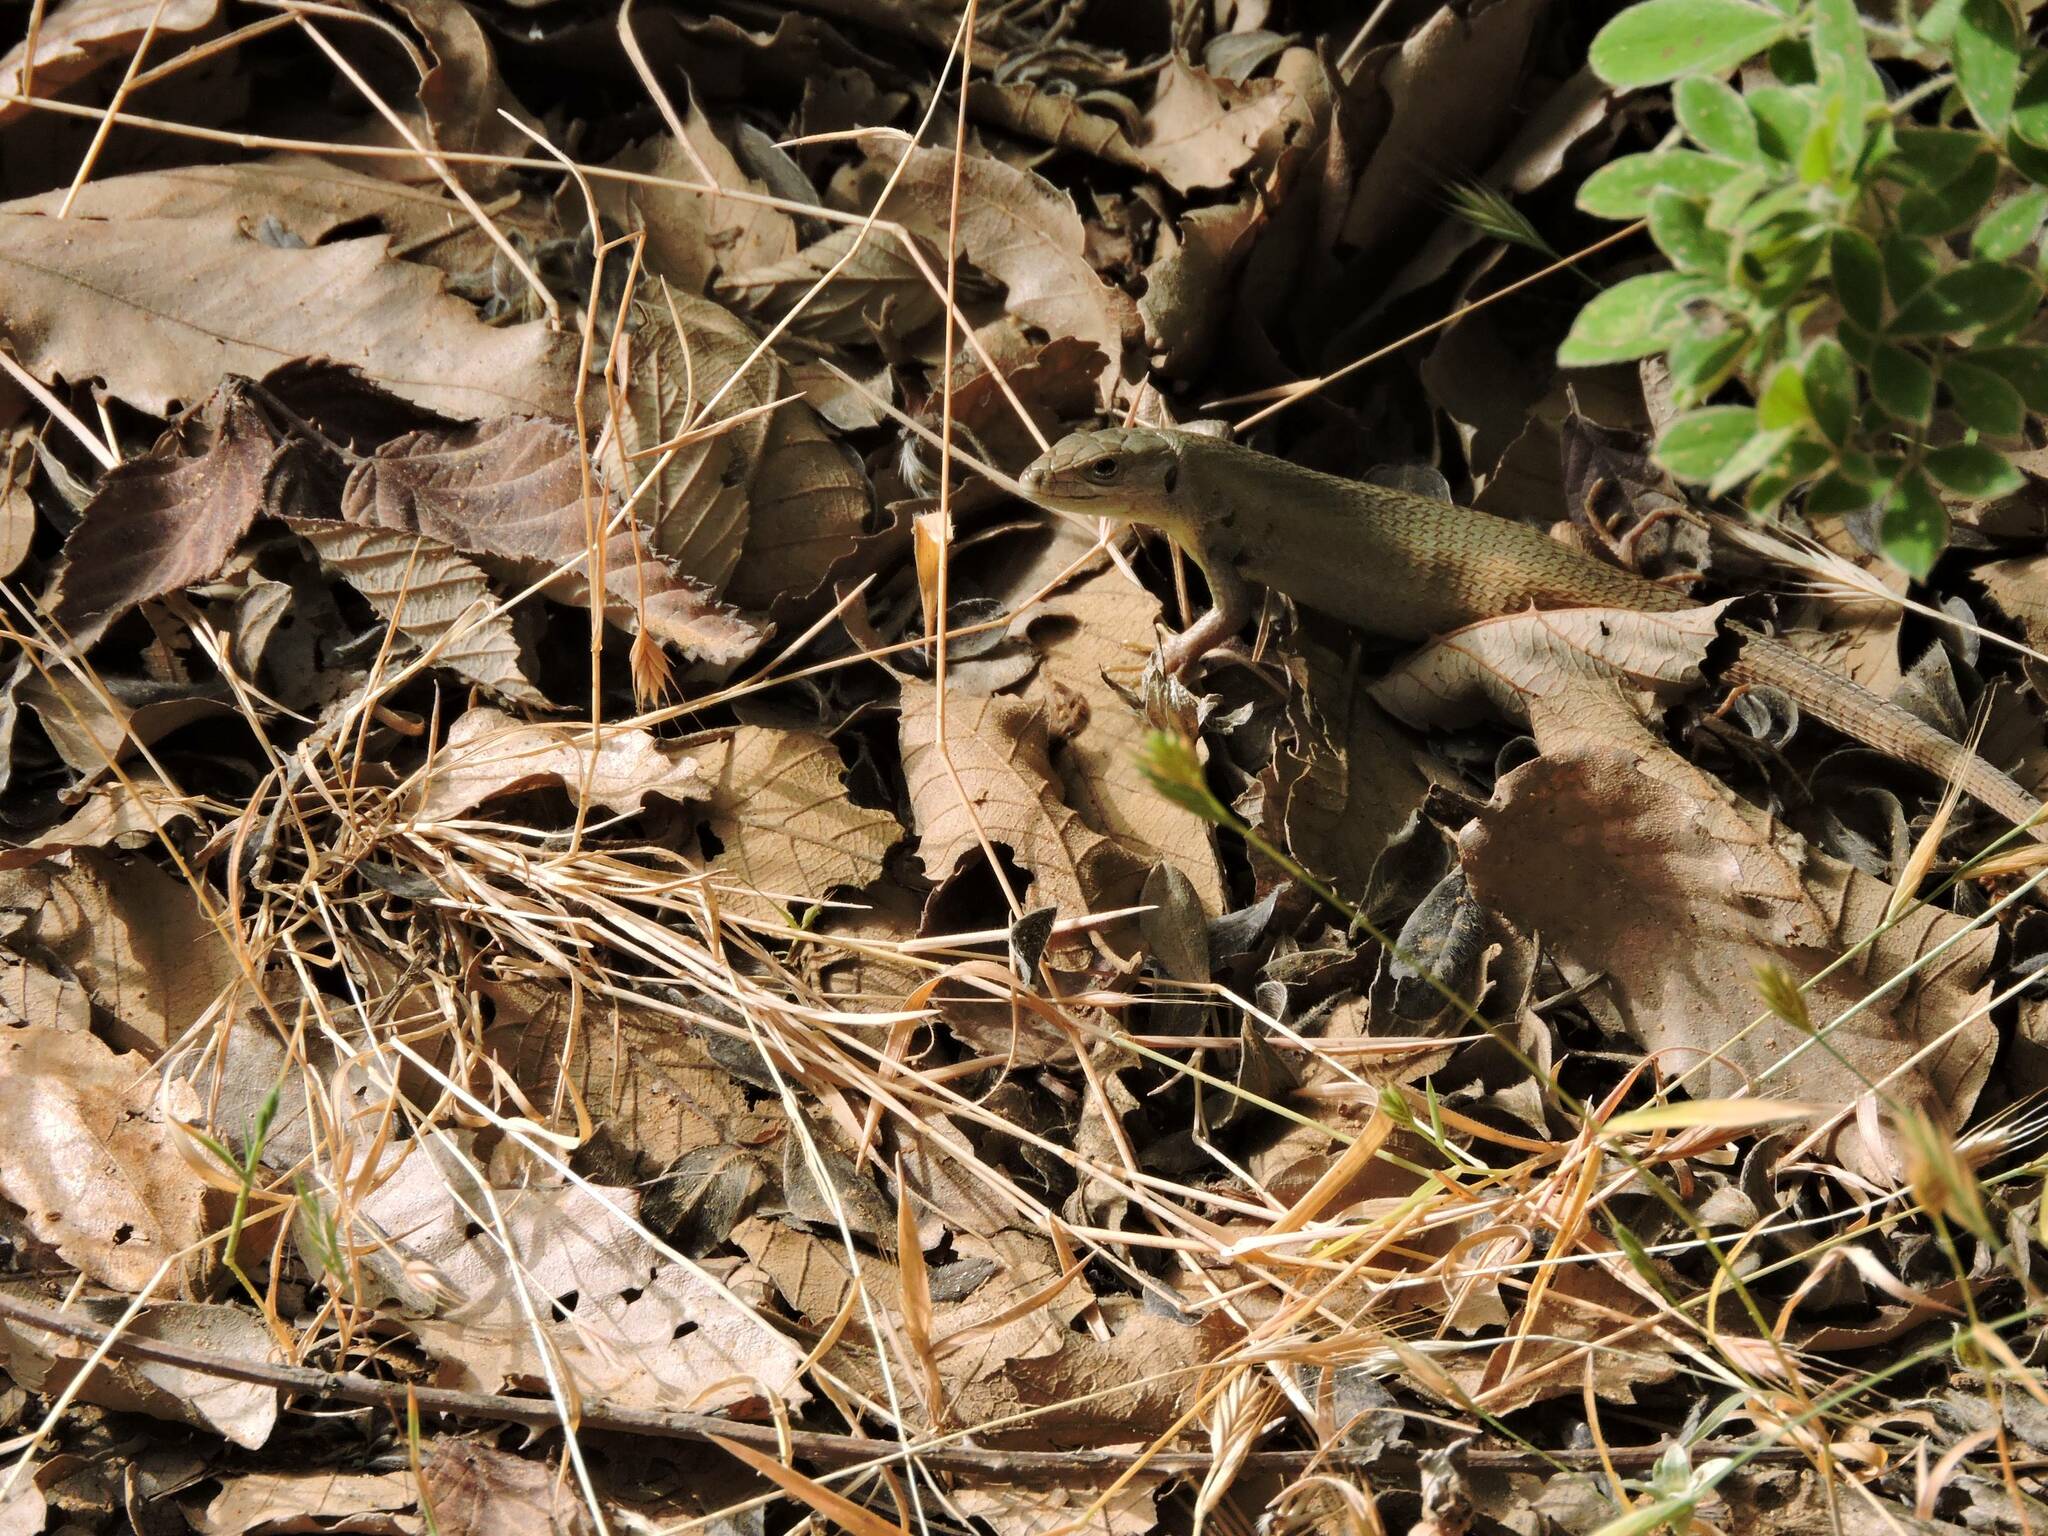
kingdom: Animalia
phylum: Chordata
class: Squamata
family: Lacertidae
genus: Psammodromus
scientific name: Psammodromus algirus
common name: Algerian psammodromus
